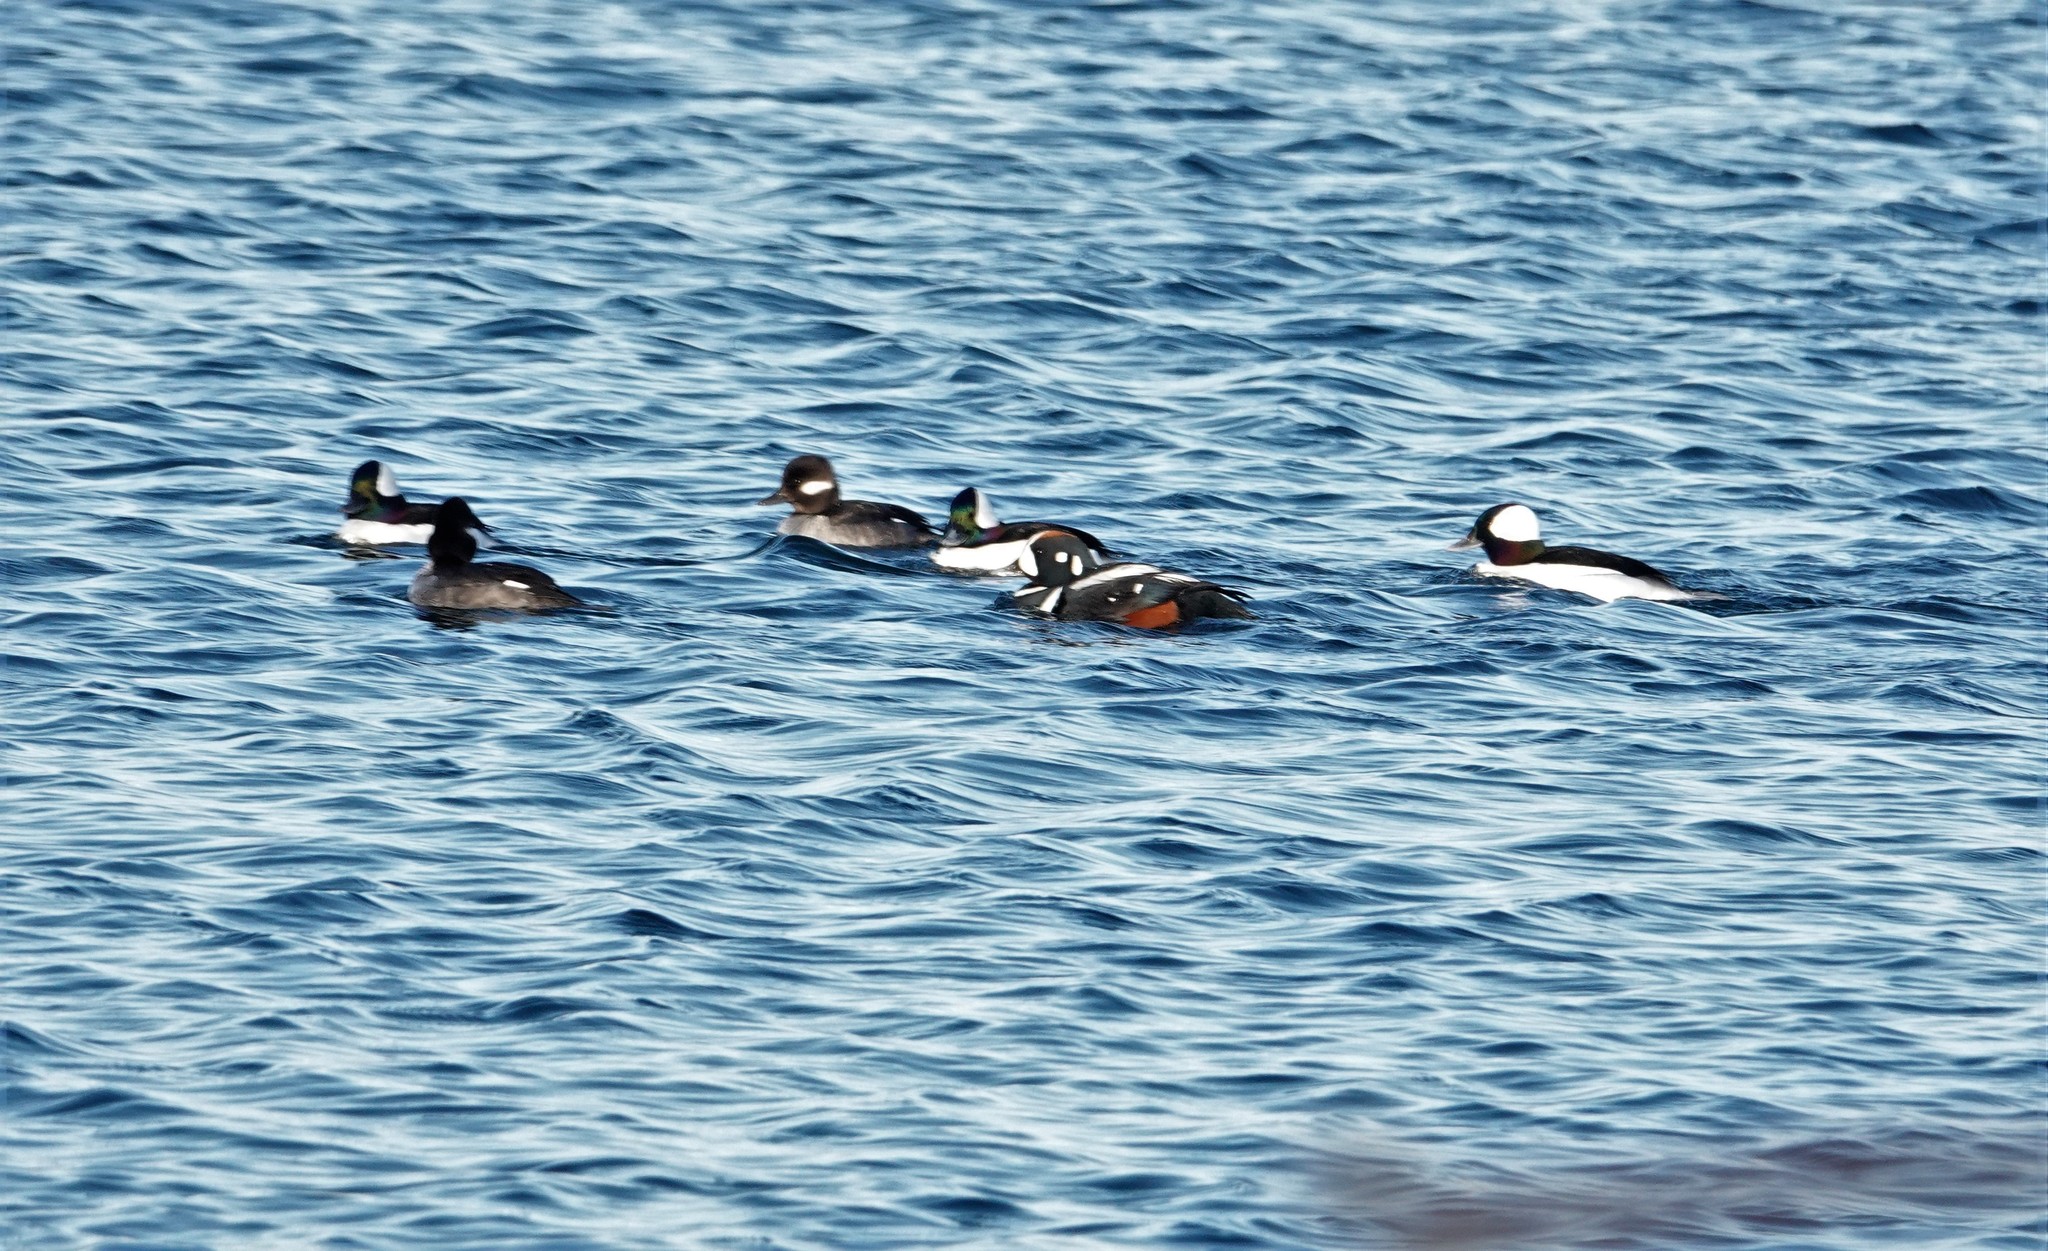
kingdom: Animalia
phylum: Chordata
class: Aves
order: Anseriformes
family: Anatidae
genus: Histrionicus
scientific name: Histrionicus histrionicus
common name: Harlequin duck
